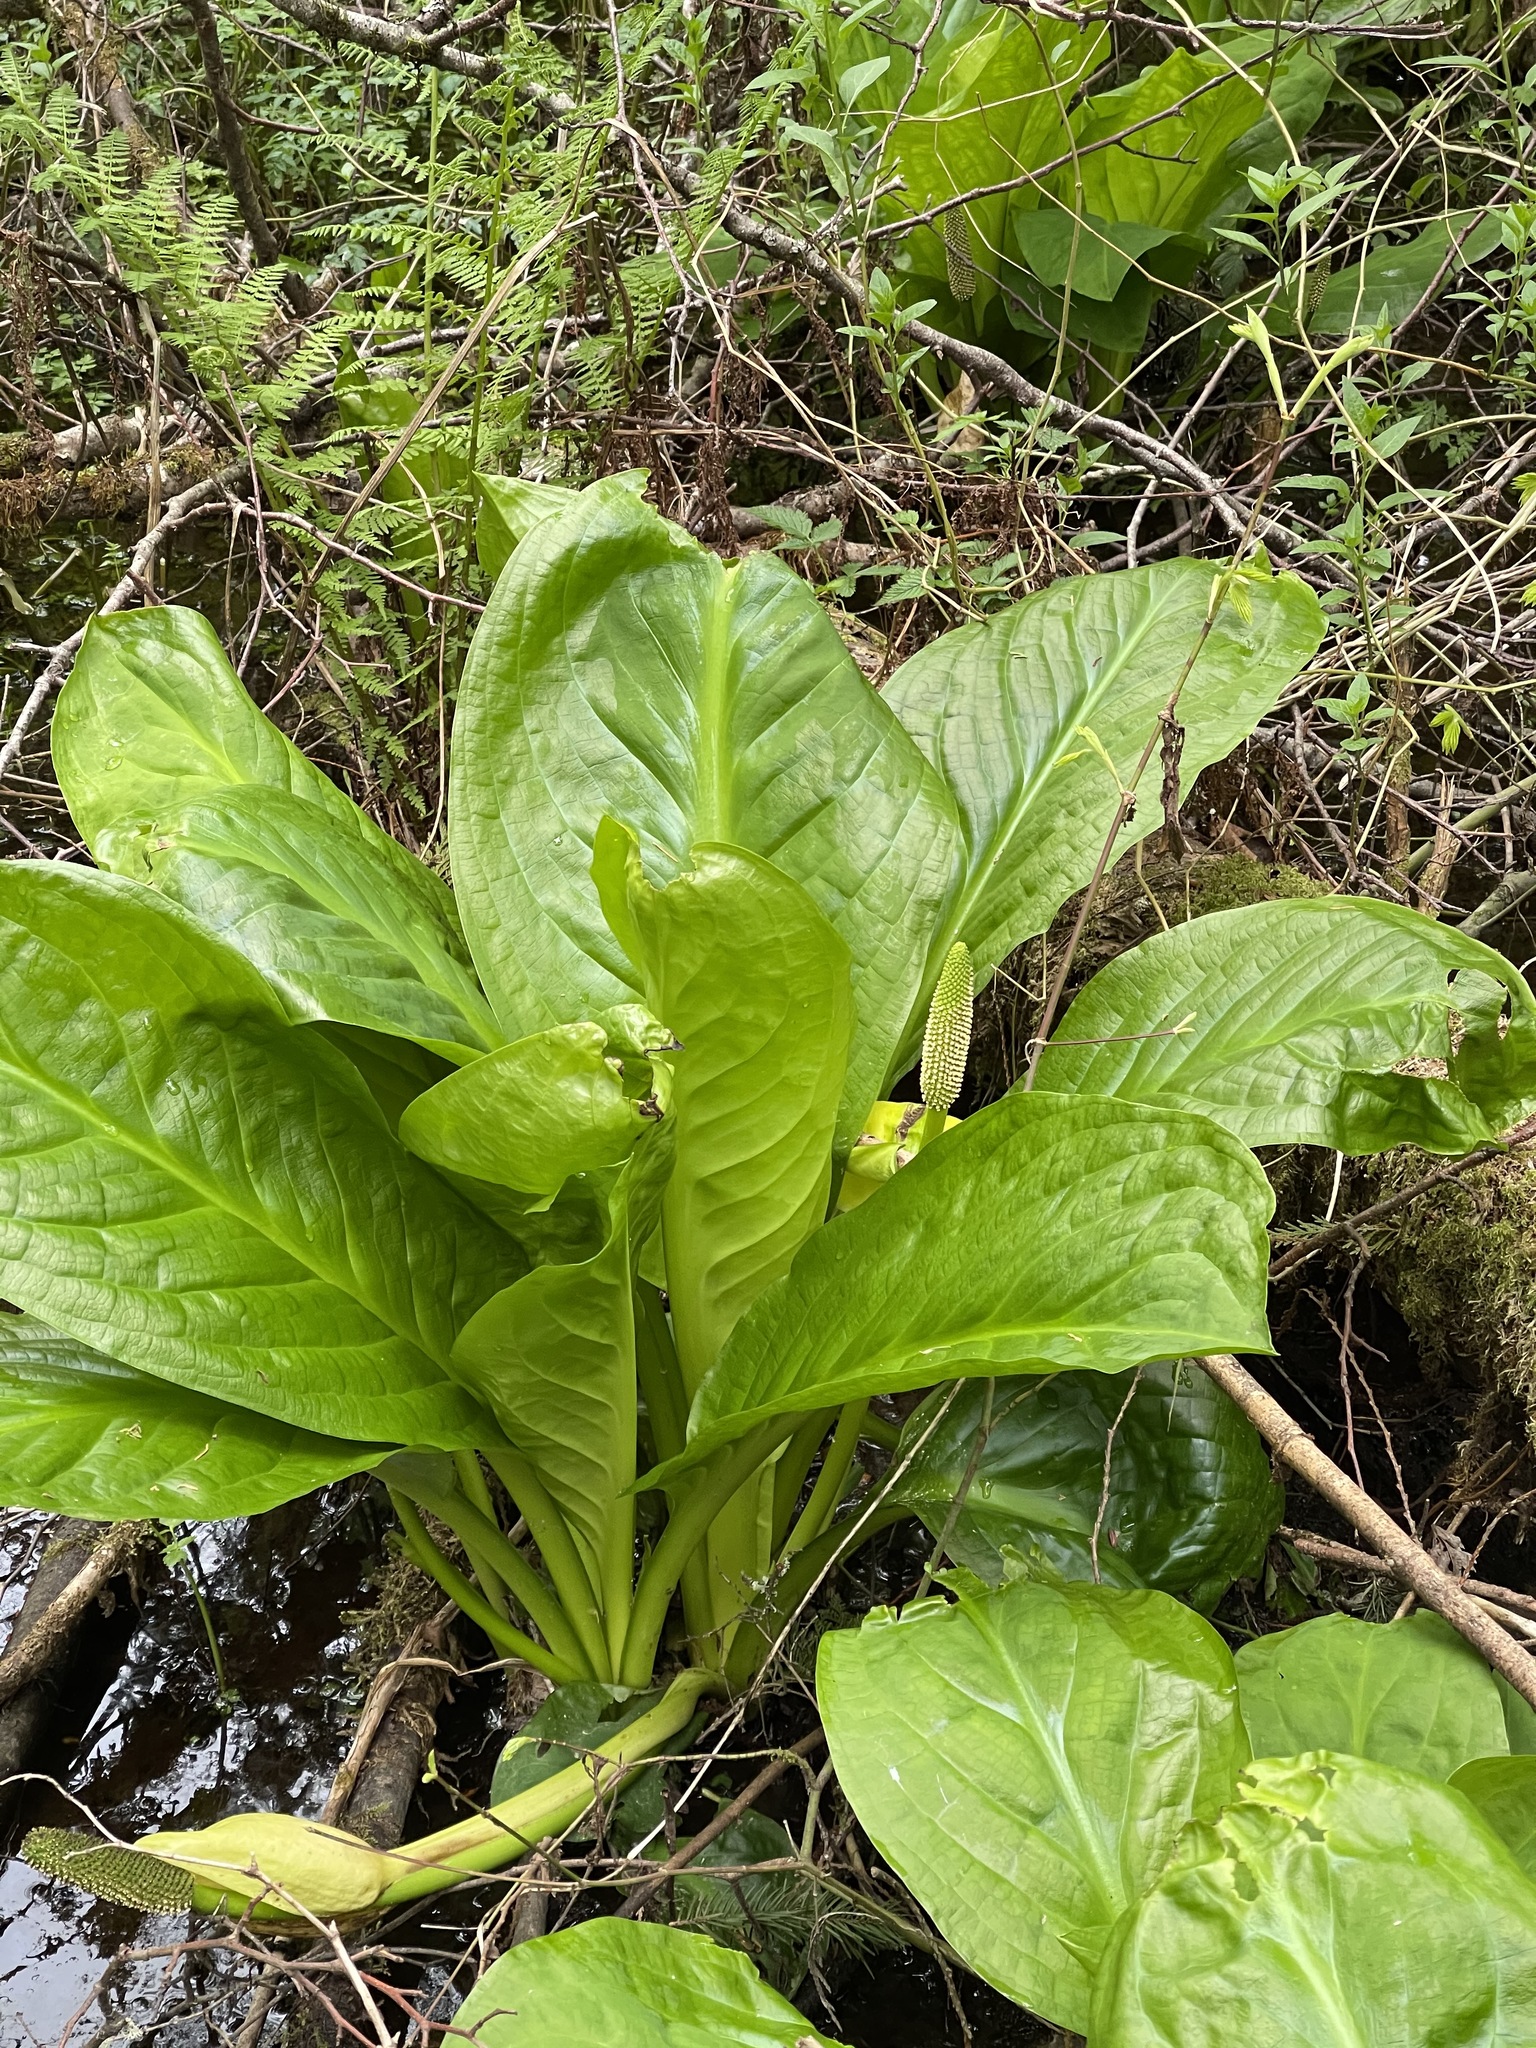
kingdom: Plantae
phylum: Tracheophyta
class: Liliopsida
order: Alismatales
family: Araceae
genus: Lysichiton
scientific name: Lysichiton americanus
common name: American skunk cabbage
